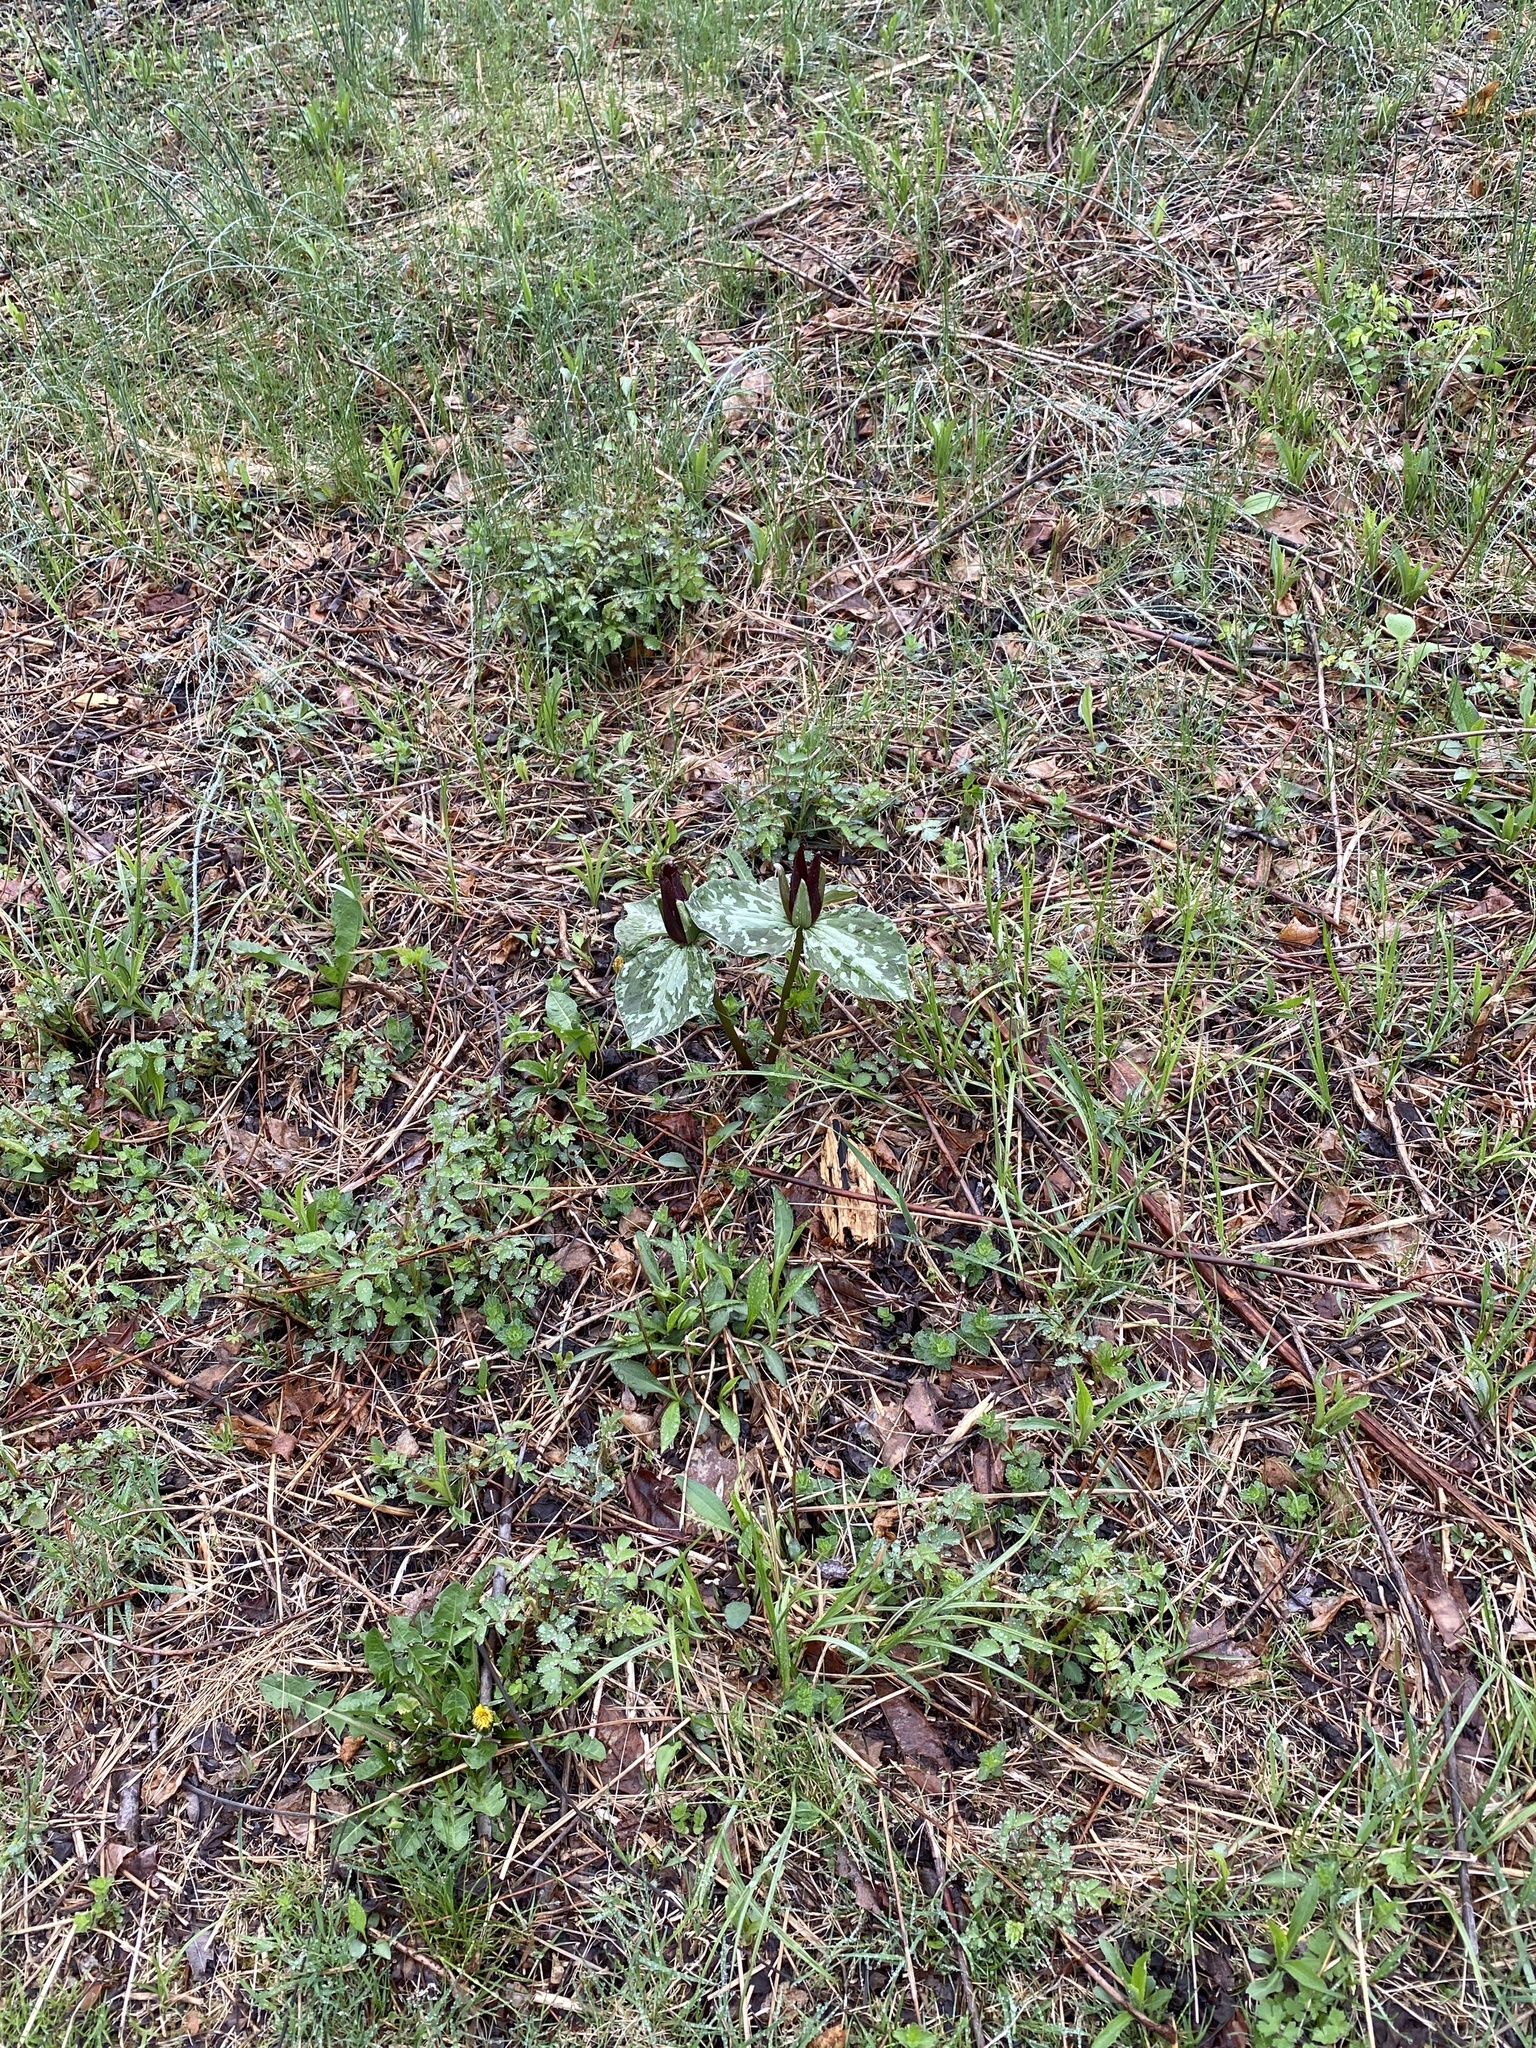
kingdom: Plantae
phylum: Tracheophyta
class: Liliopsida
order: Liliales
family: Melanthiaceae
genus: Trillium
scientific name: Trillium cuneatum
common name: Cuneate trillium
